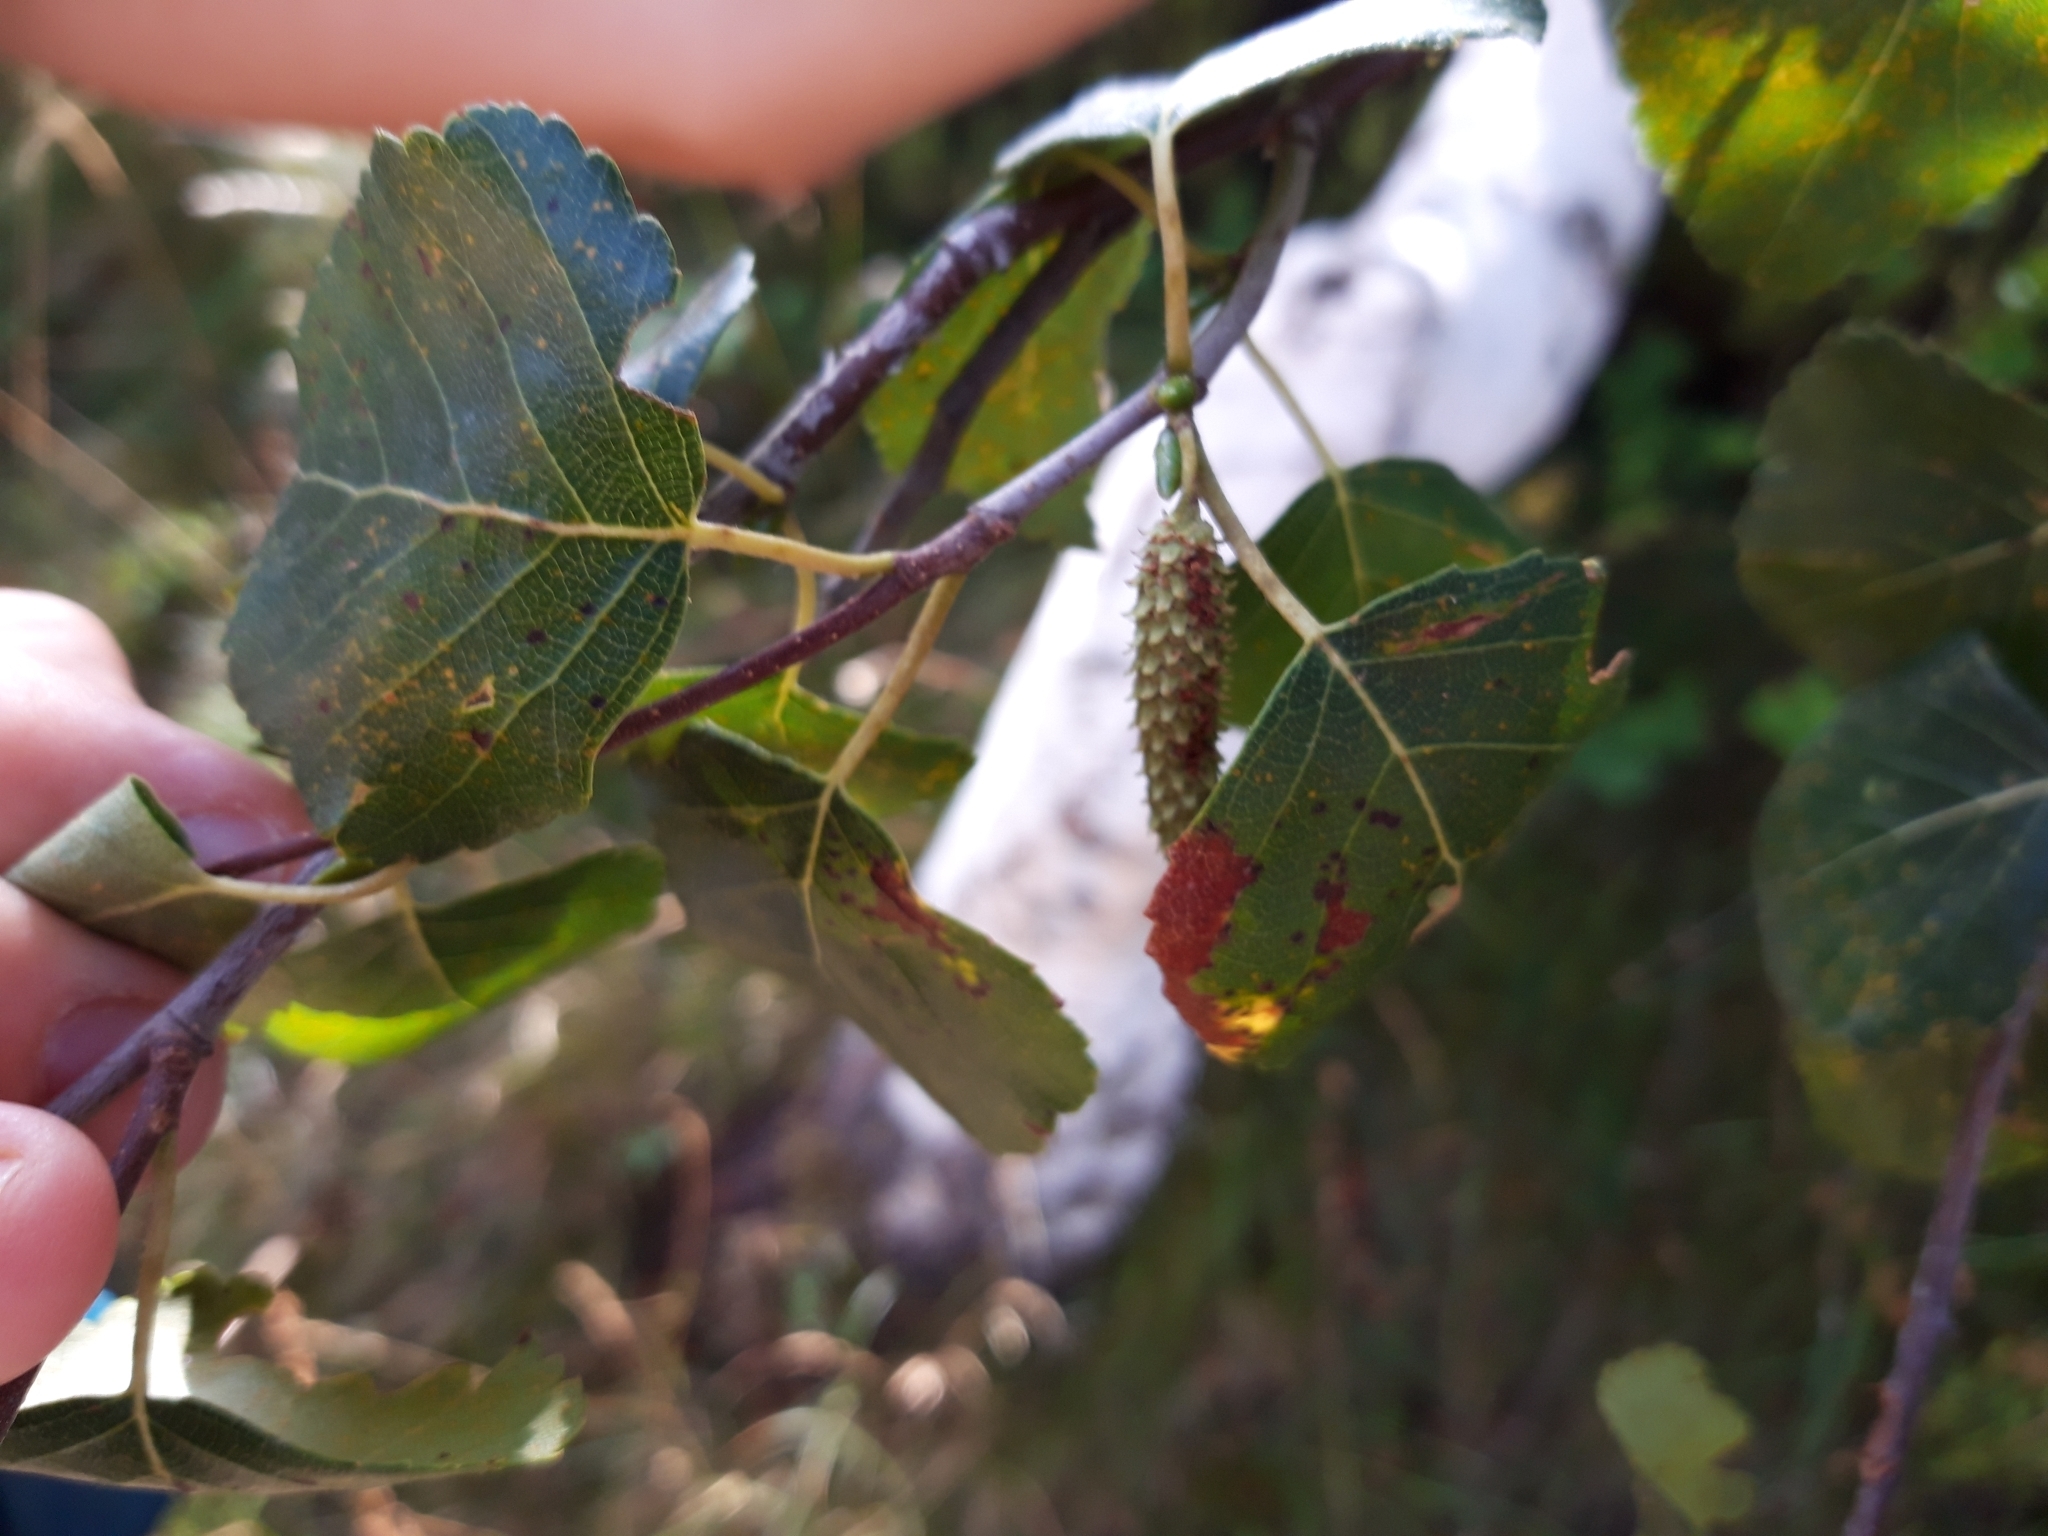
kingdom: Plantae
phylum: Tracheophyta
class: Magnoliopsida
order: Fagales
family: Betulaceae
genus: Betula
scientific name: Betula pendula
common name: Silver birch
